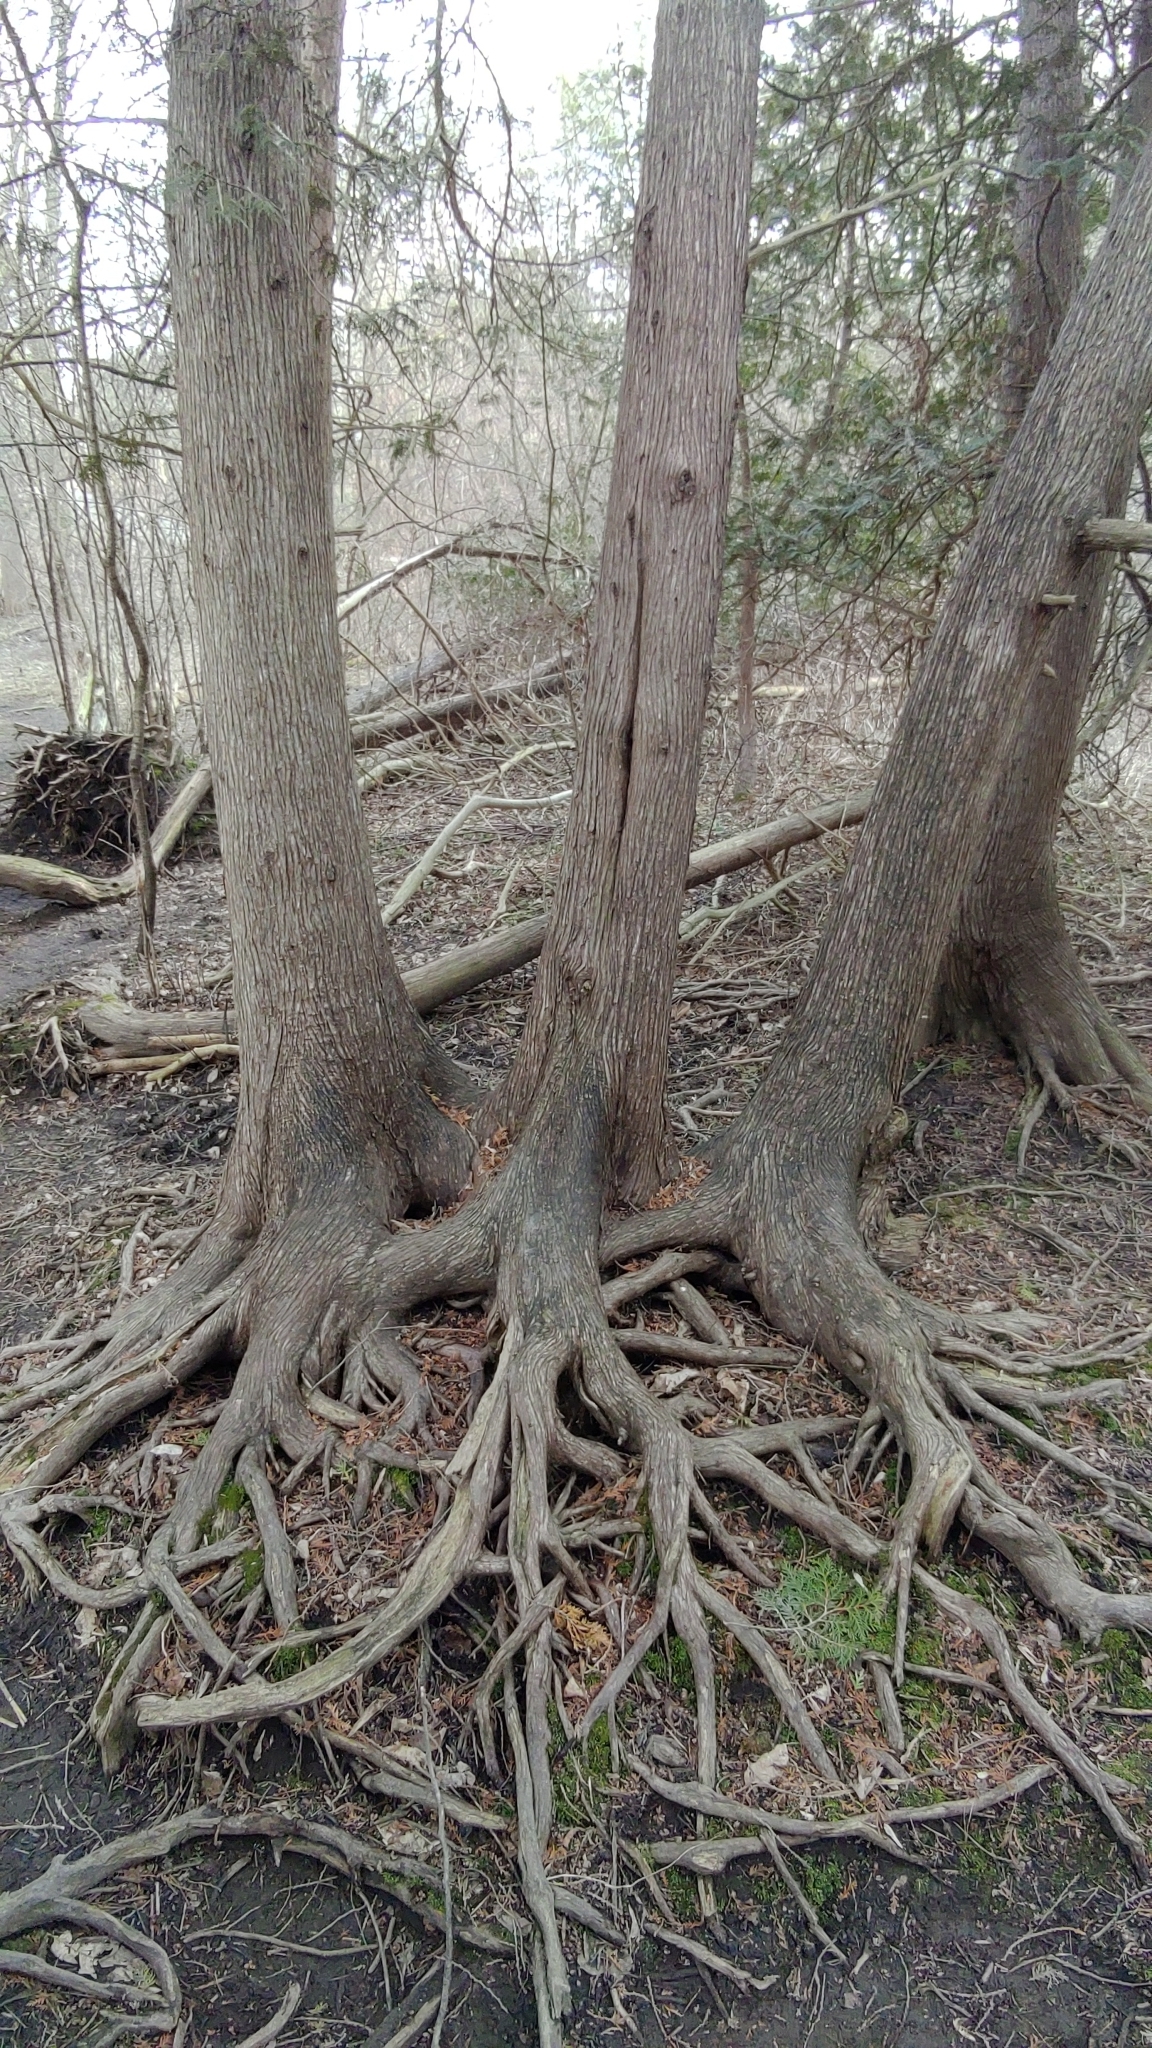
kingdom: Plantae
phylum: Tracheophyta
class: Pinopsida
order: Pinales
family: Cupressaceae
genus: Thuja
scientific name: Thuja occidentalis
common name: Northern white-cedar
